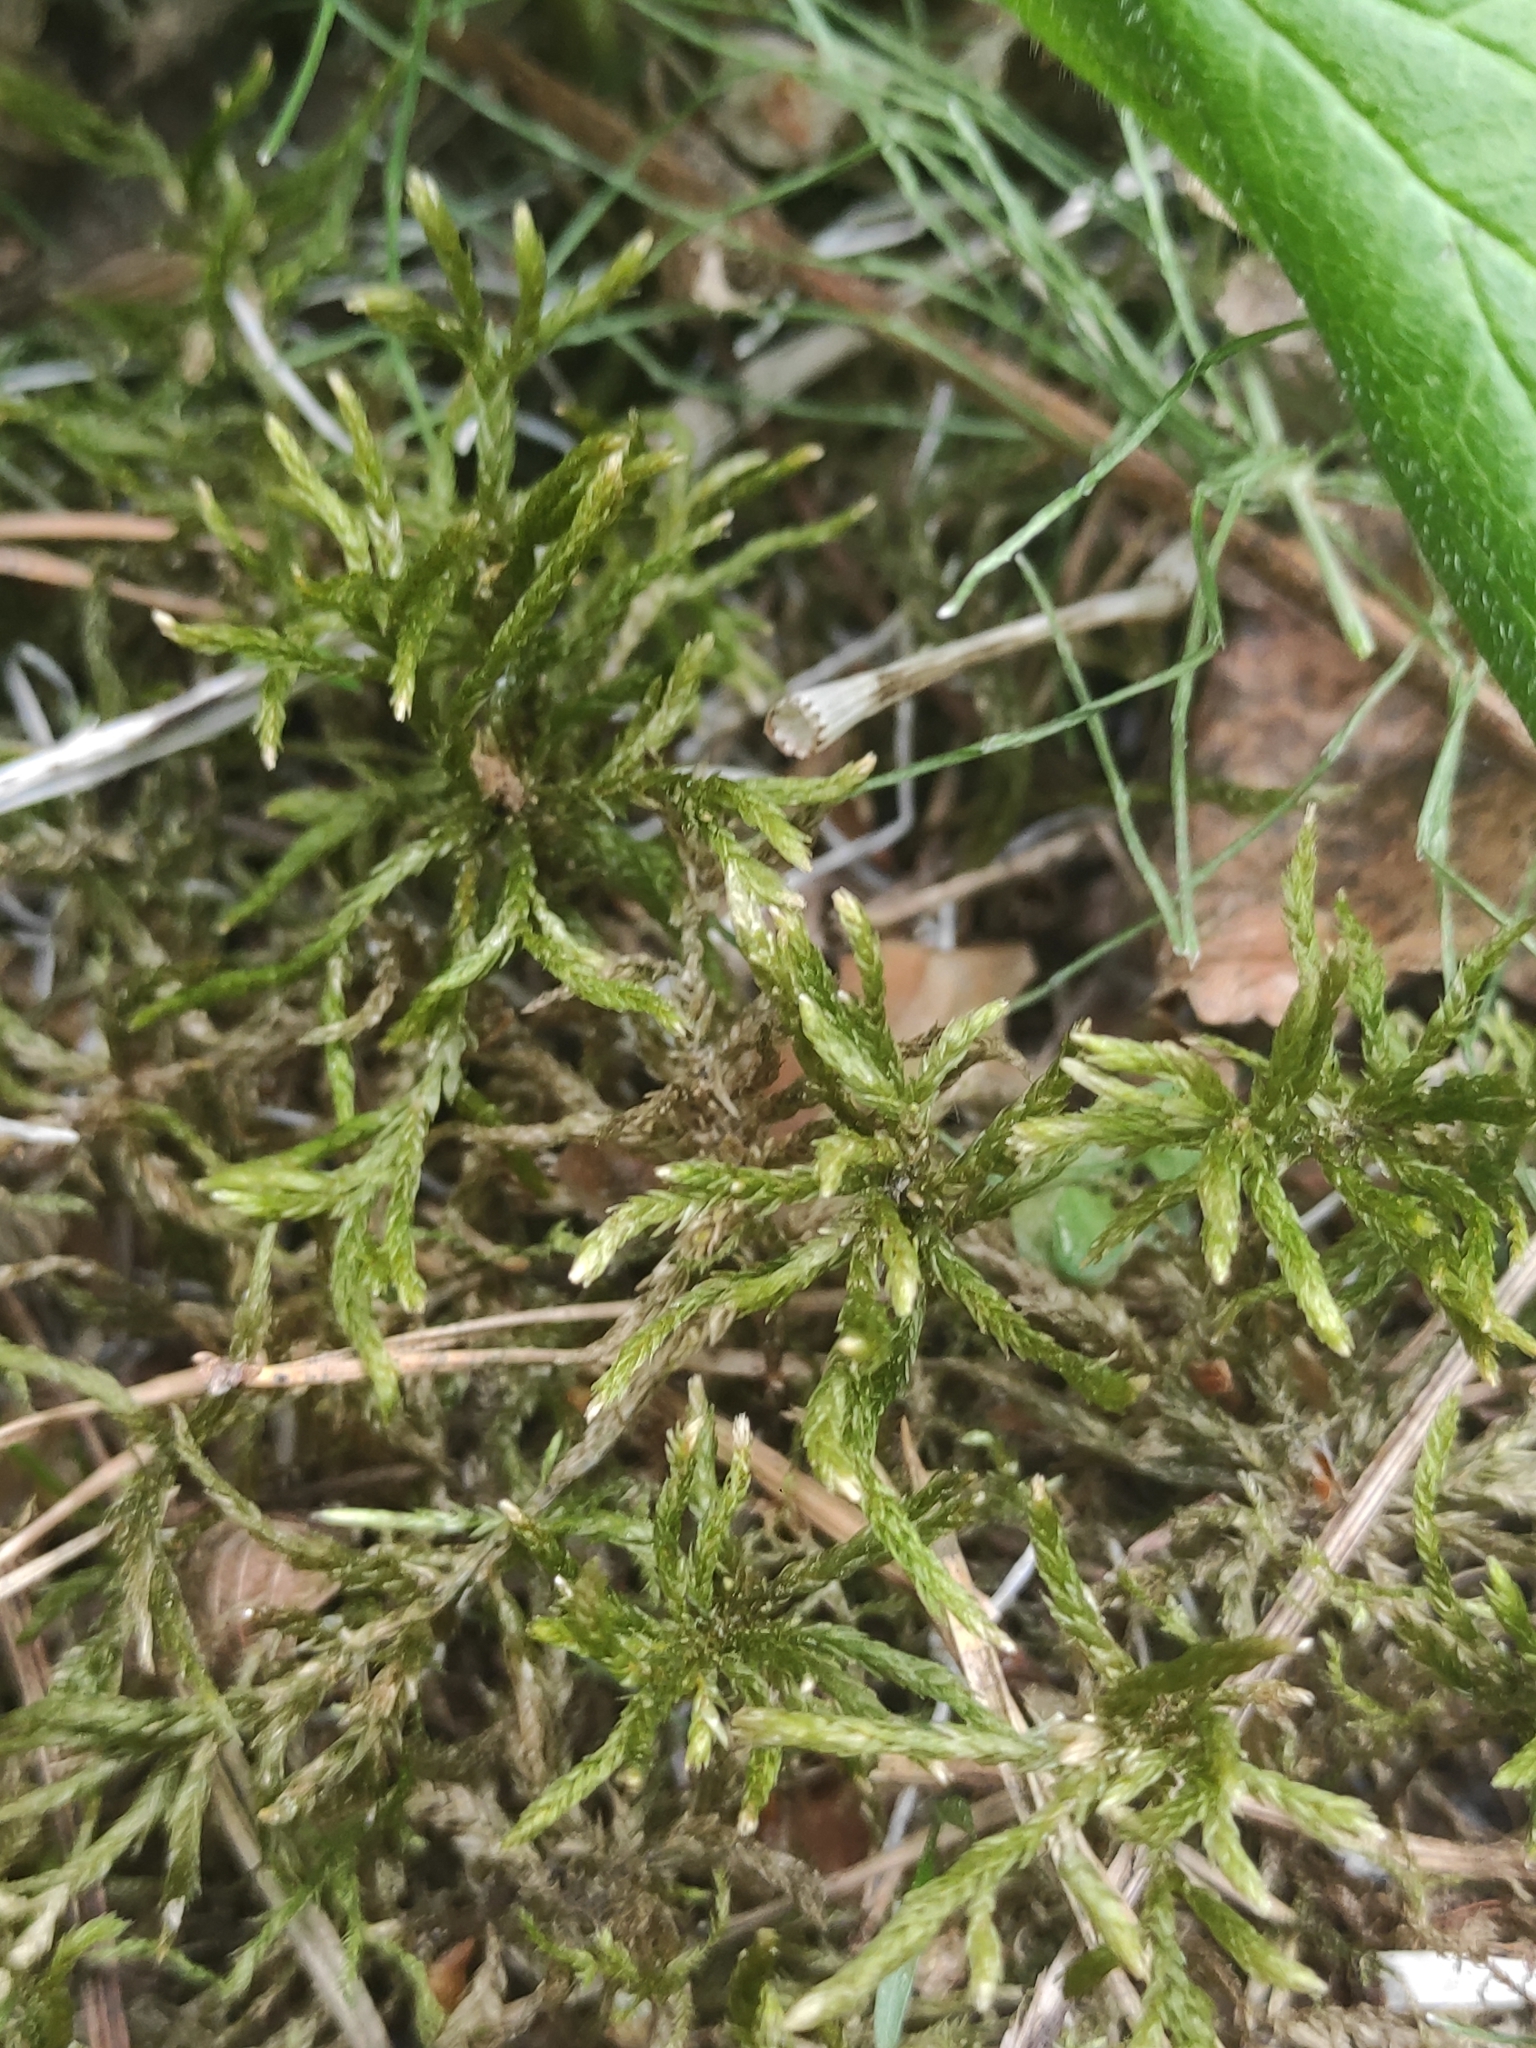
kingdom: Plantae
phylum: Bryophyta
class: Bryopsida
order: Hypnales
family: Climaciaceae
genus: Climacium
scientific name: Climacium dendroides
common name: Northern tree moss
